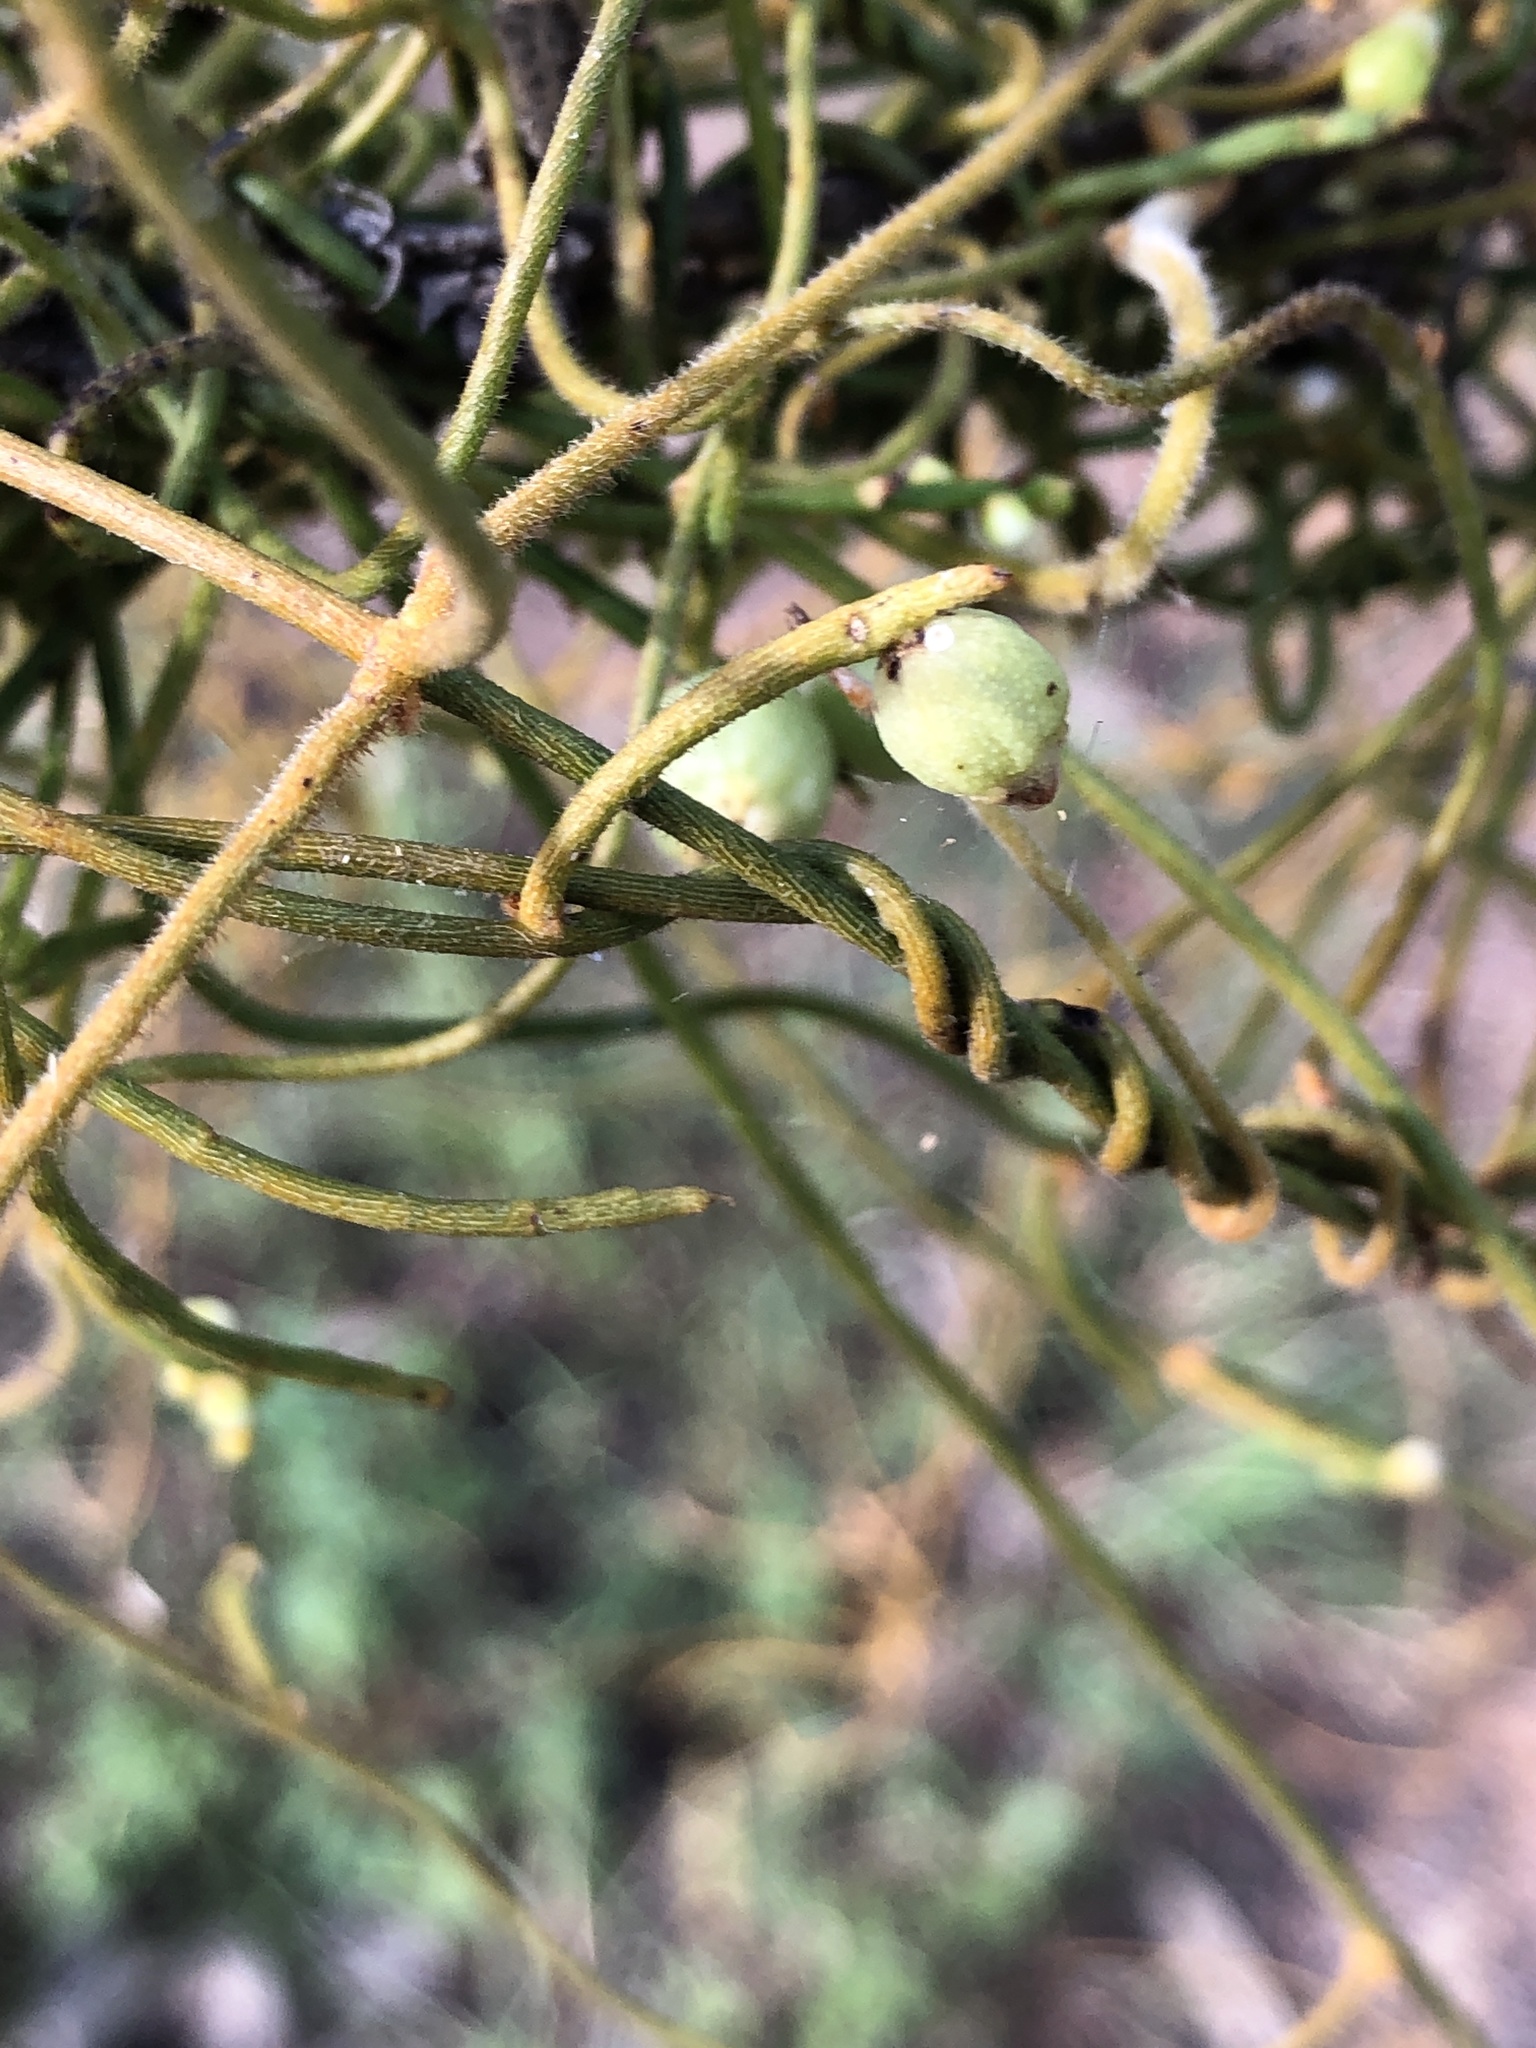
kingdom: Plantae
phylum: Tracheophyta
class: Magnoliopsida
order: Laurales
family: Lauraceae
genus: Cassytha
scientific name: Cassytha filiformis
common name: Dodder-laurel
